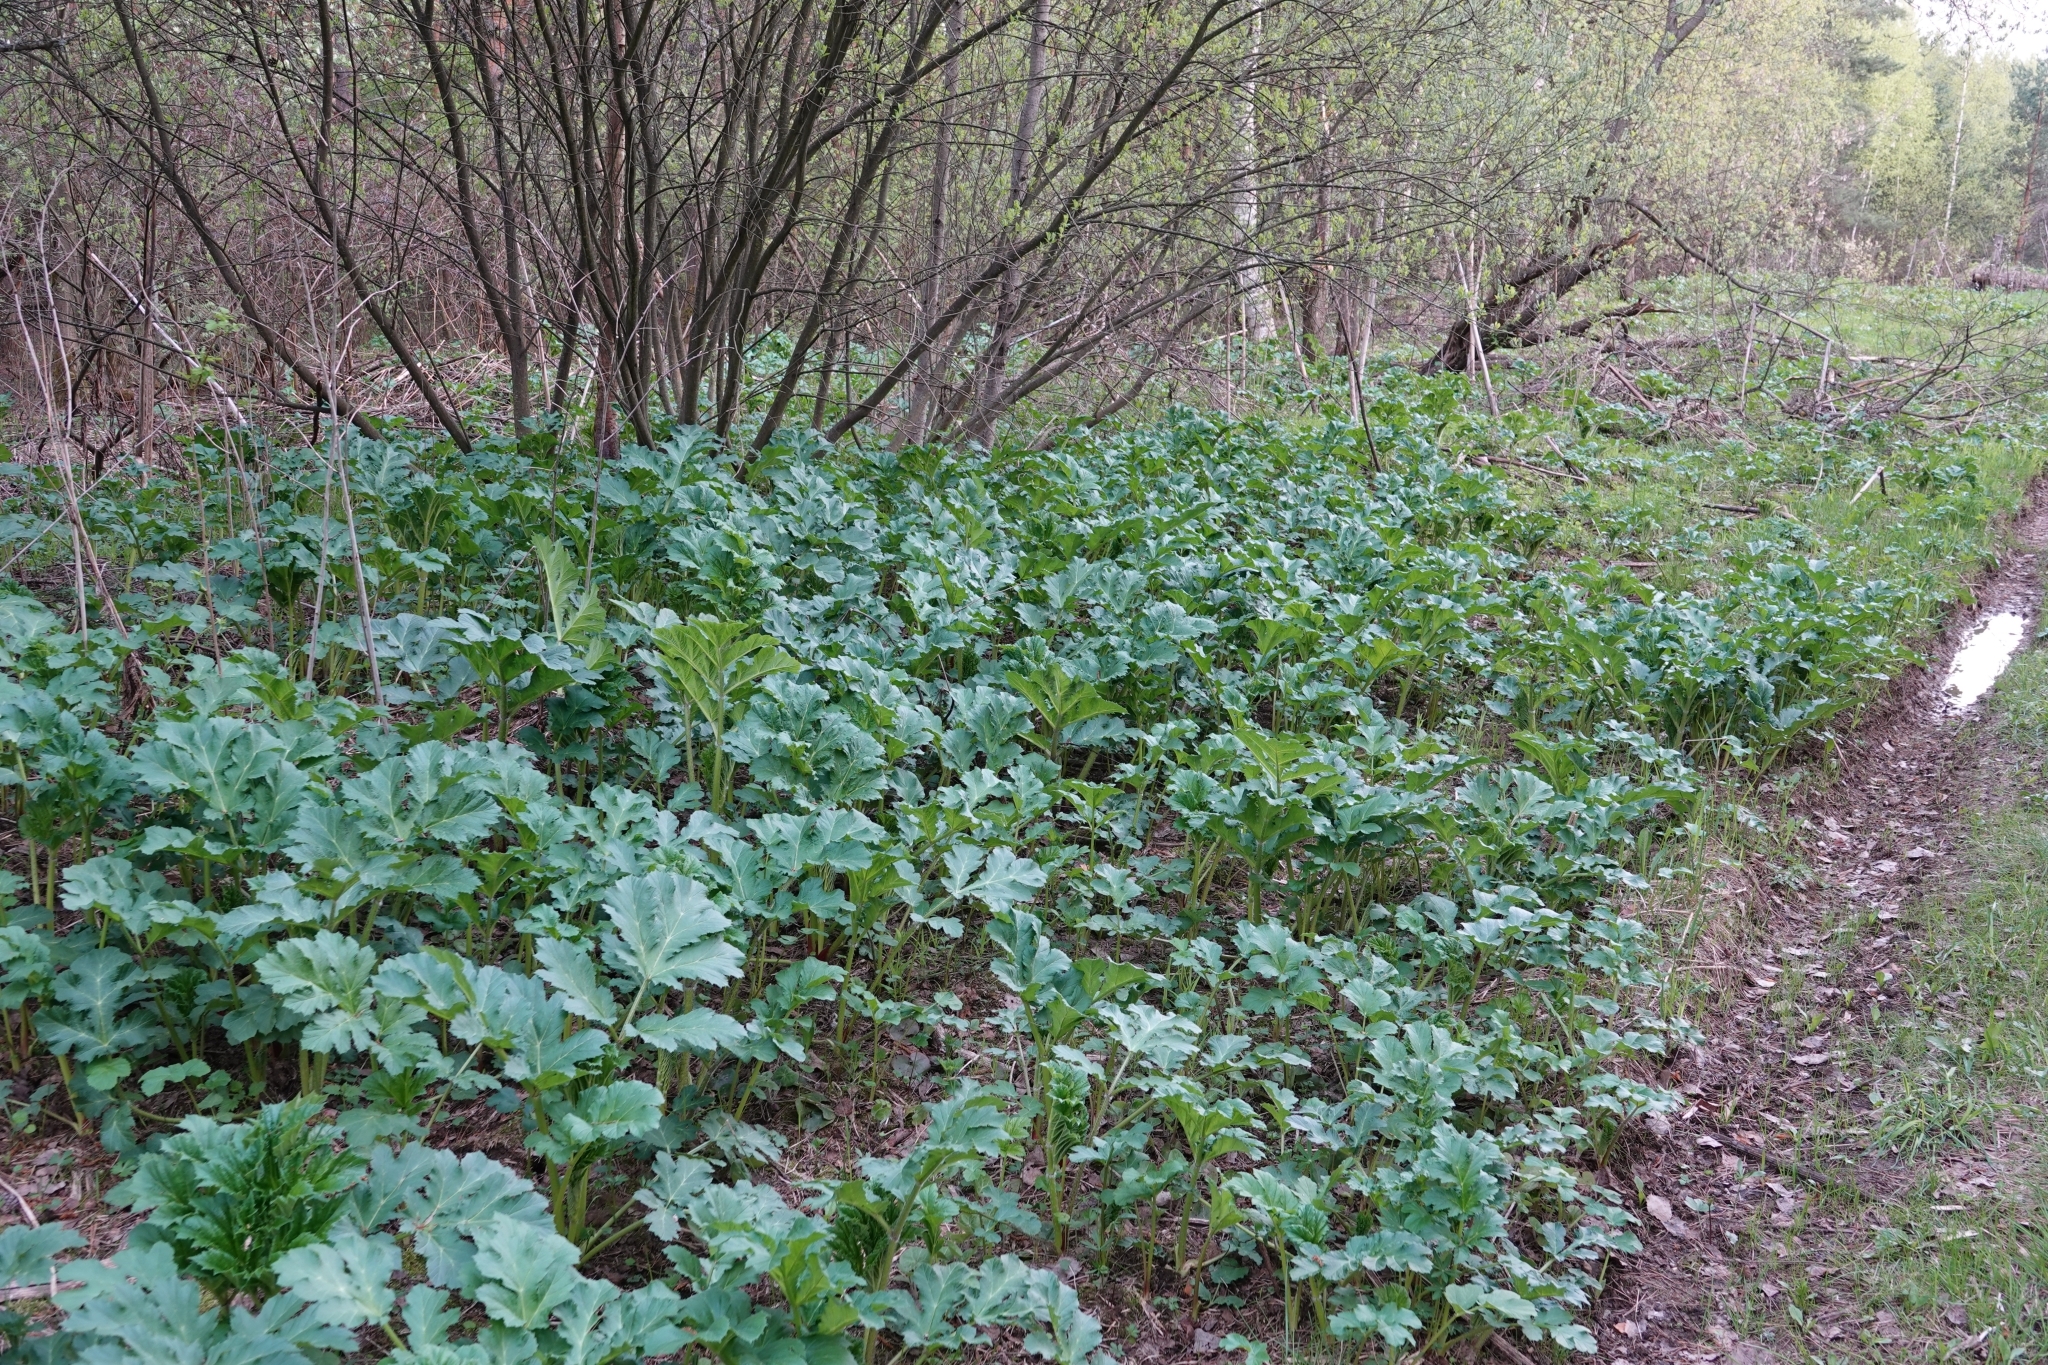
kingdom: Plantae
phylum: Tracheophyta
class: Magnoliopsida
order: Apiales
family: Apiaceae
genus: Heracleum
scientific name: Heracleum sosnowskyi
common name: Sosnowsky's hogweed
